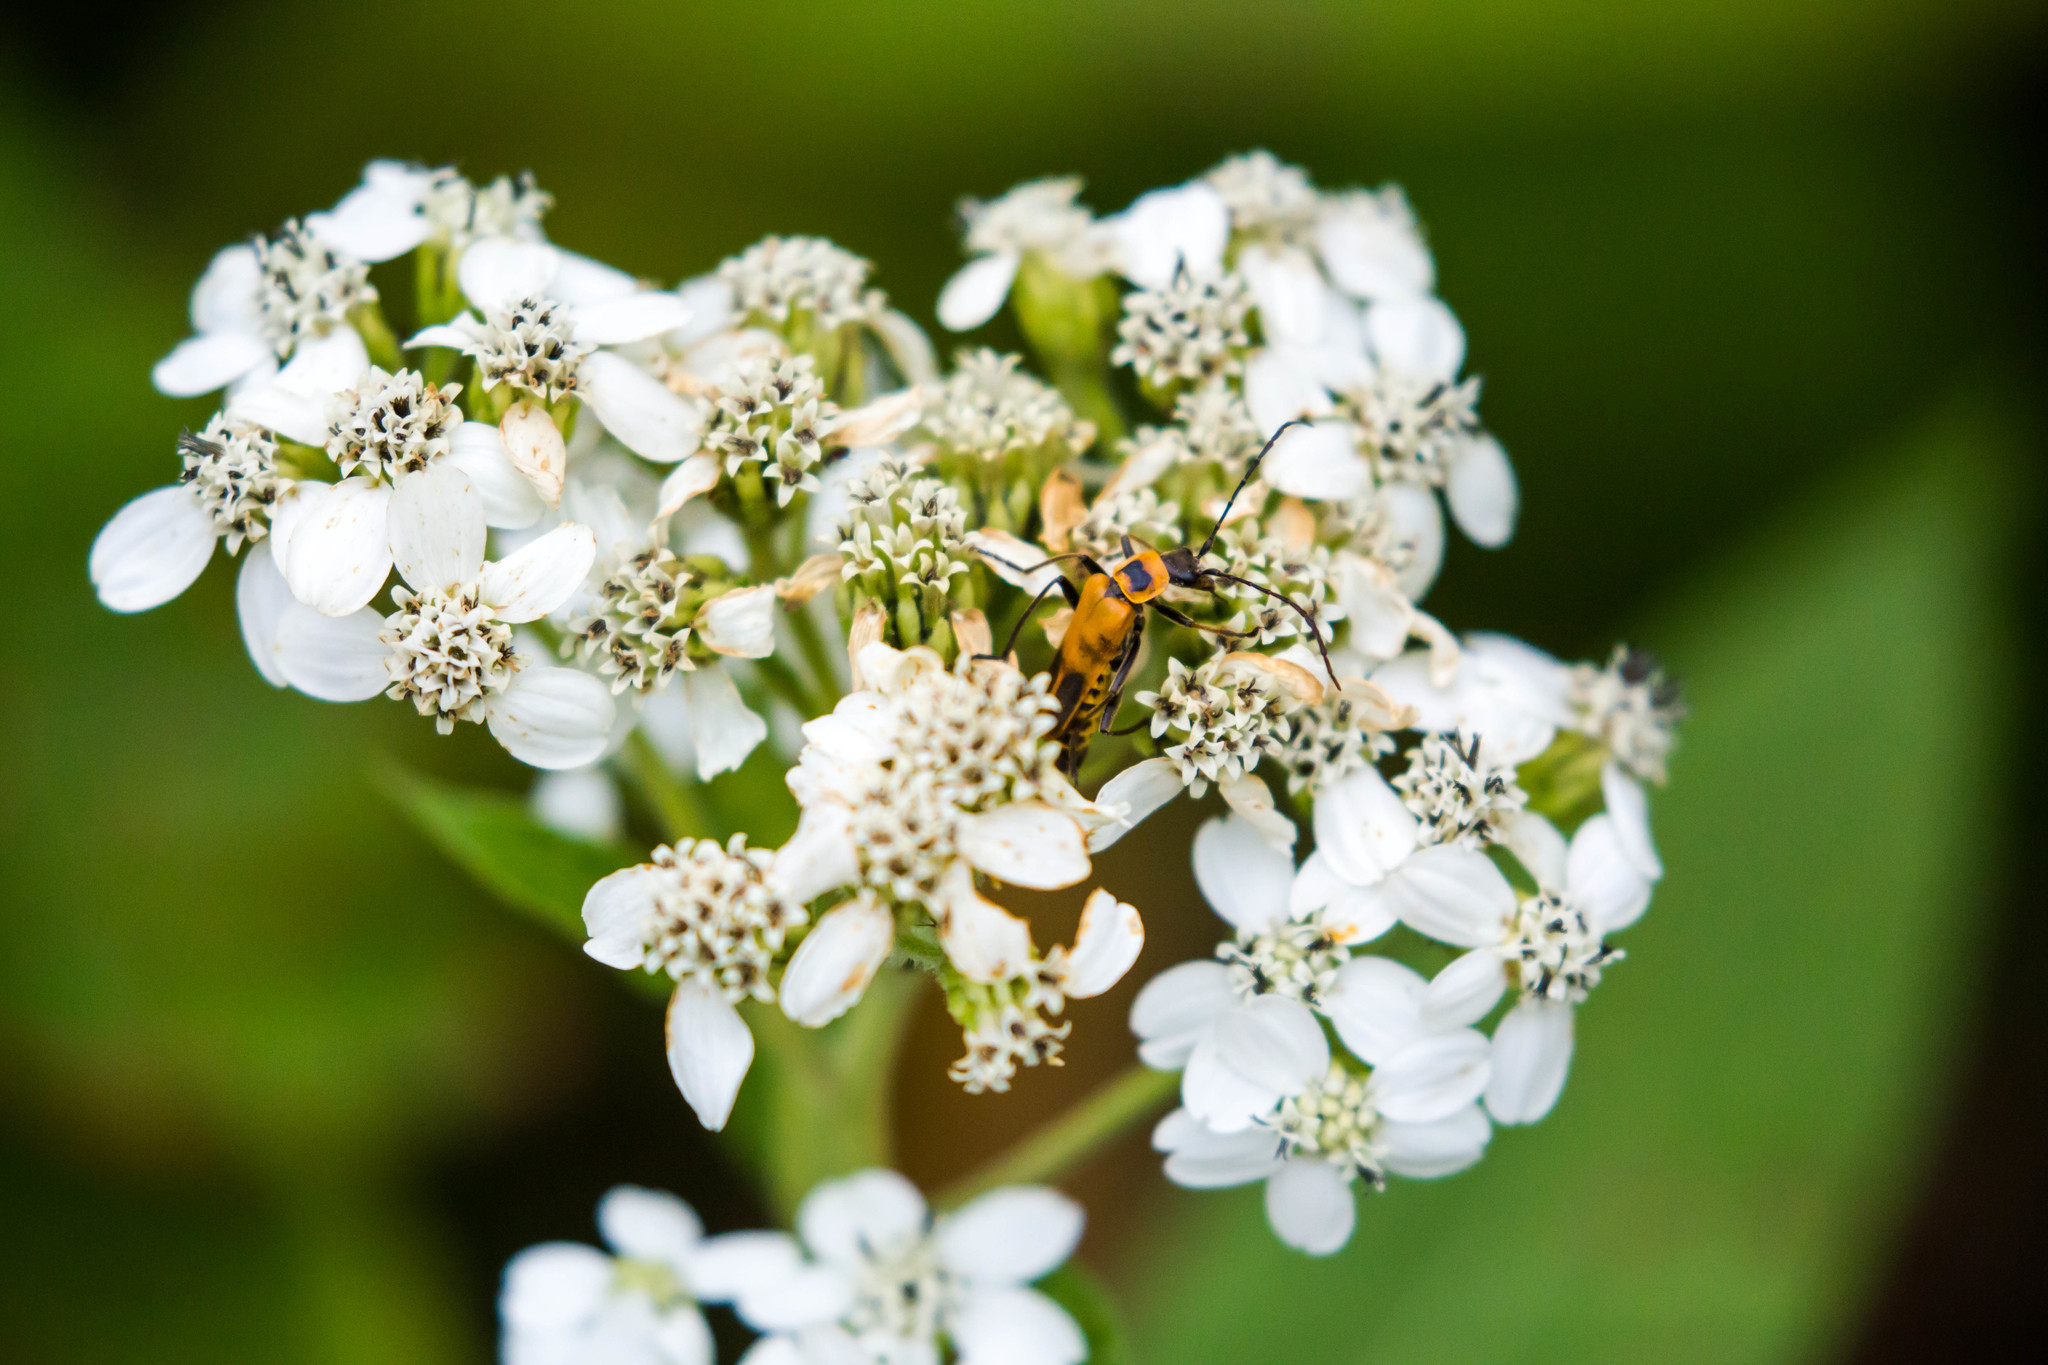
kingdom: Animalia
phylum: Arthropoda
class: Insecta
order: Coleoptera
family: Cantharidae
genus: Chauliognathus
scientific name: Chauliognathus pensylvanicus
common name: Goldenrod soldier beetle
